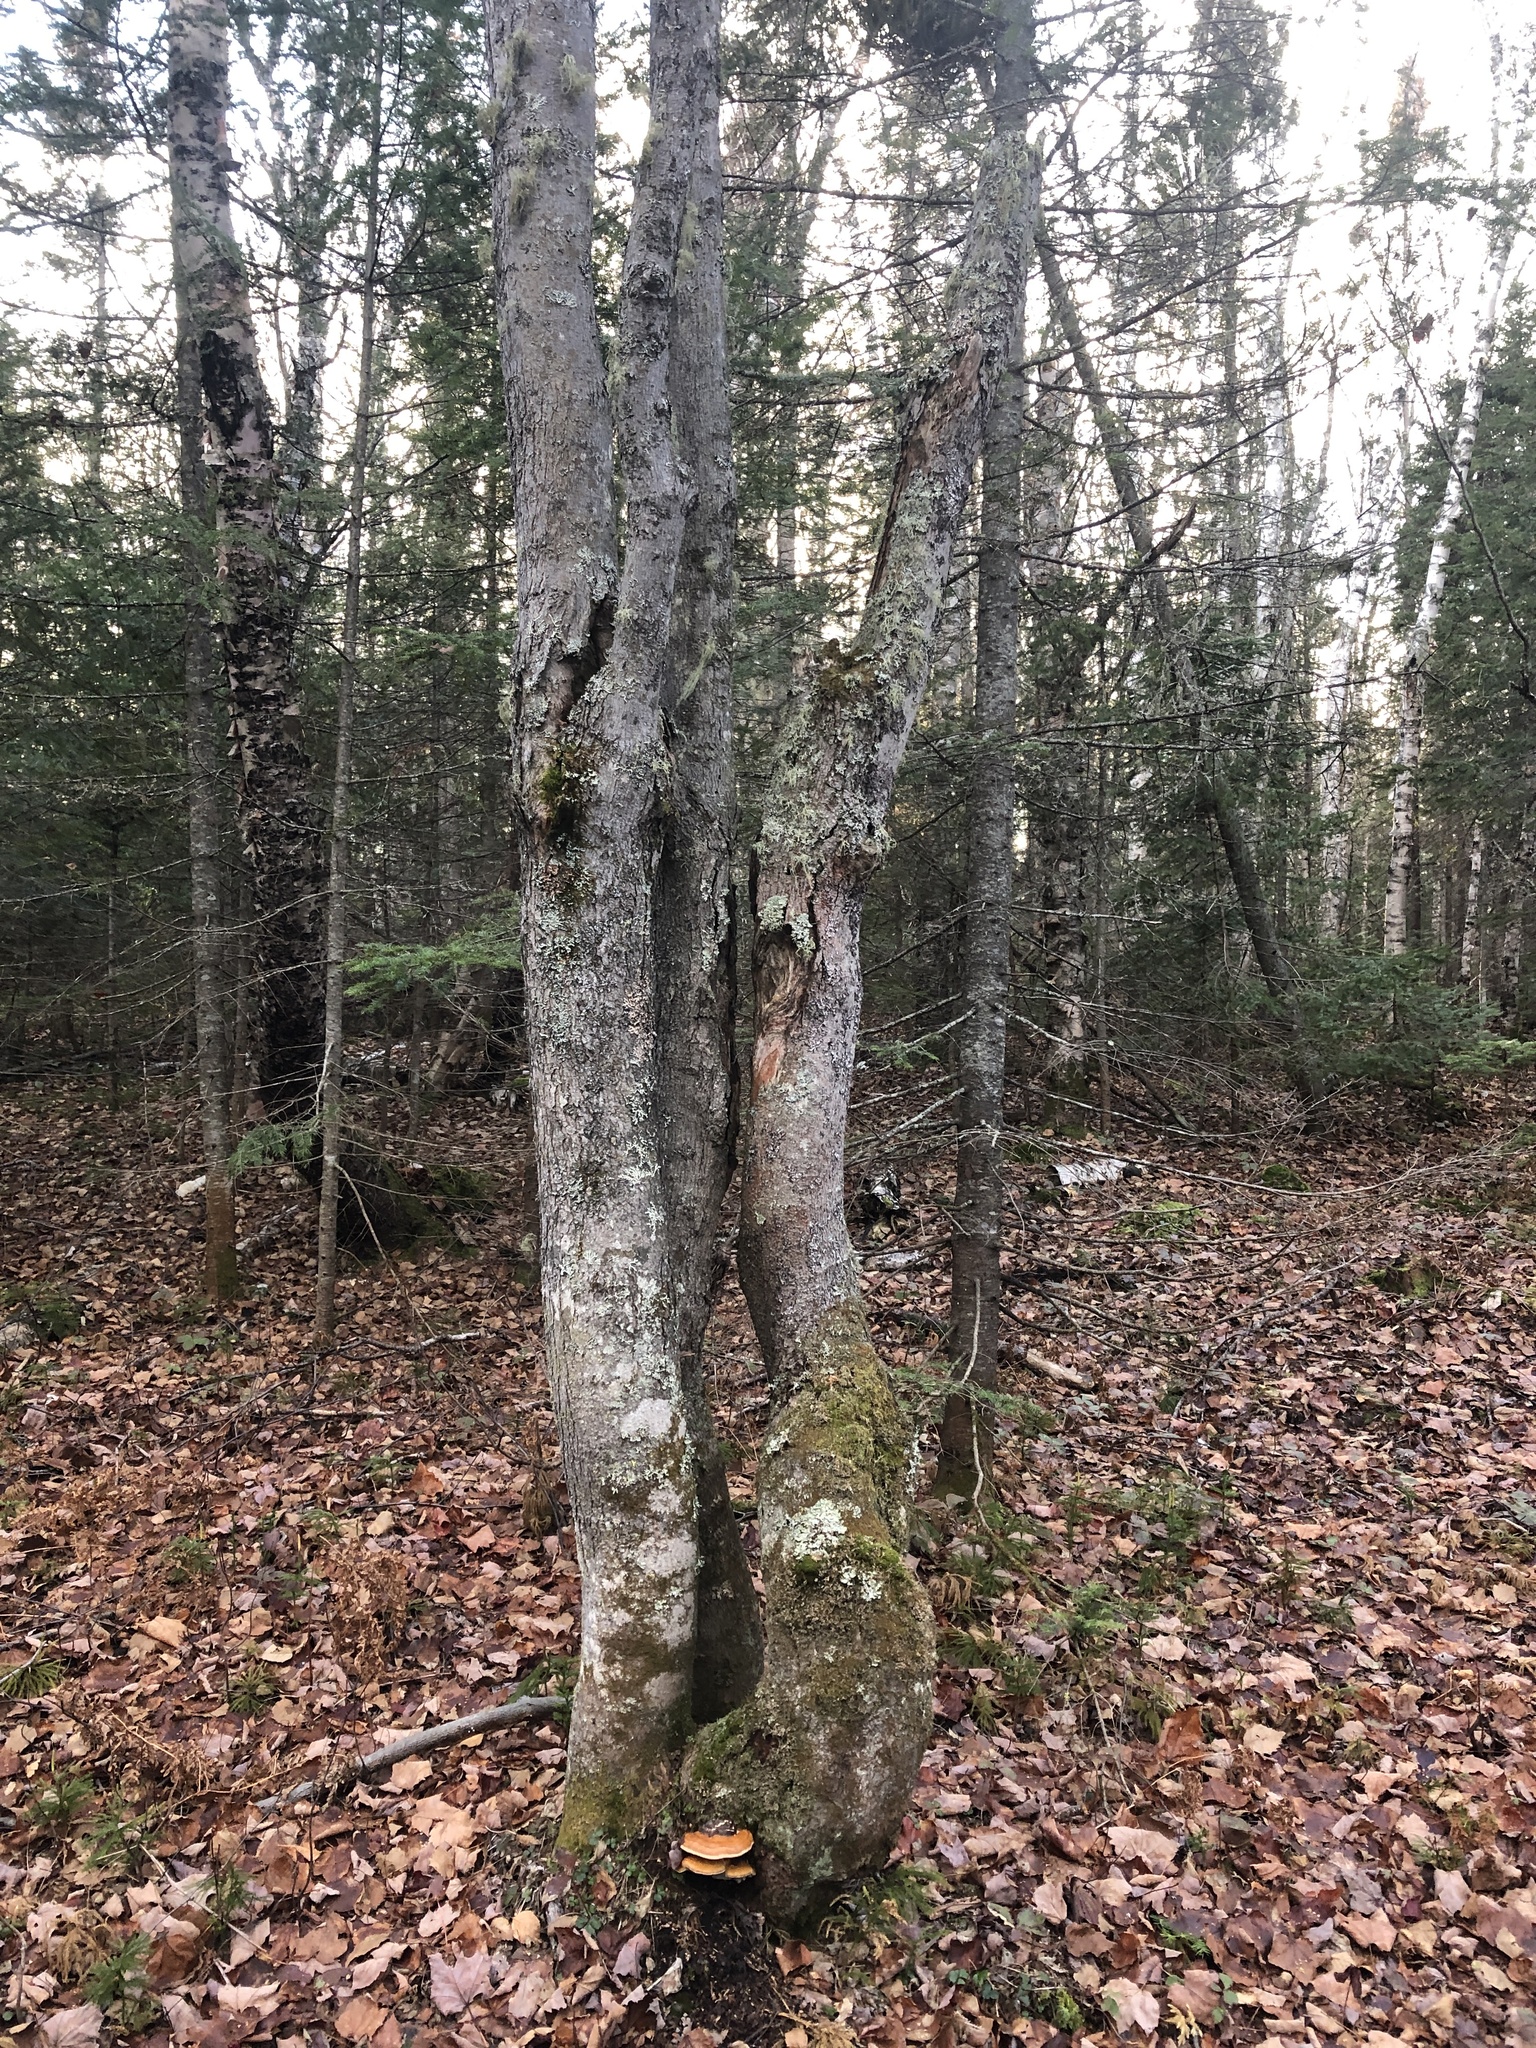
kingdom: Fungi
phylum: Basidiomycota
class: Agaricomycetes
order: Polyporales
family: Fomitopsidaceae
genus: Fomitopsis
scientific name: Fomitopsis mounceae
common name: Northern red belt
